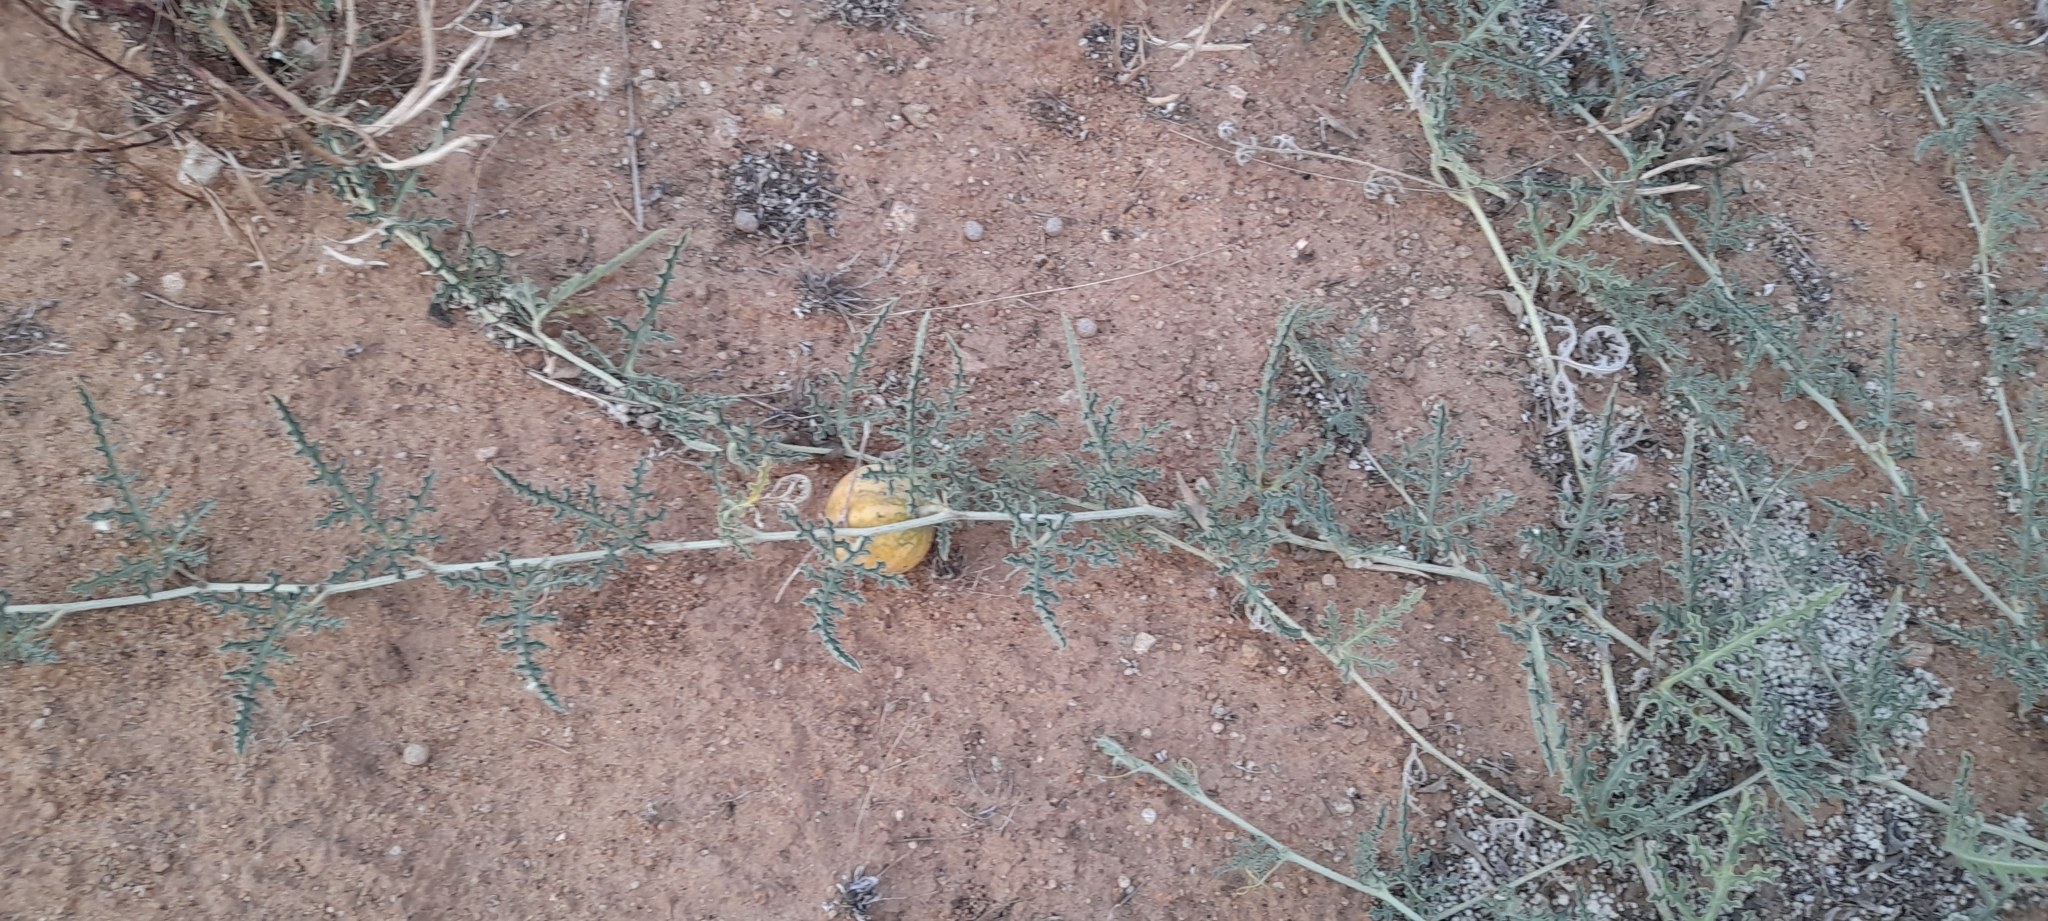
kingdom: Plantae
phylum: Tracheophyta
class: Magnoliopsida
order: Cucurbitales
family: Cucurbitaceae
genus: Citrullus
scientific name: Citrullus colocynthis
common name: Colocynth
